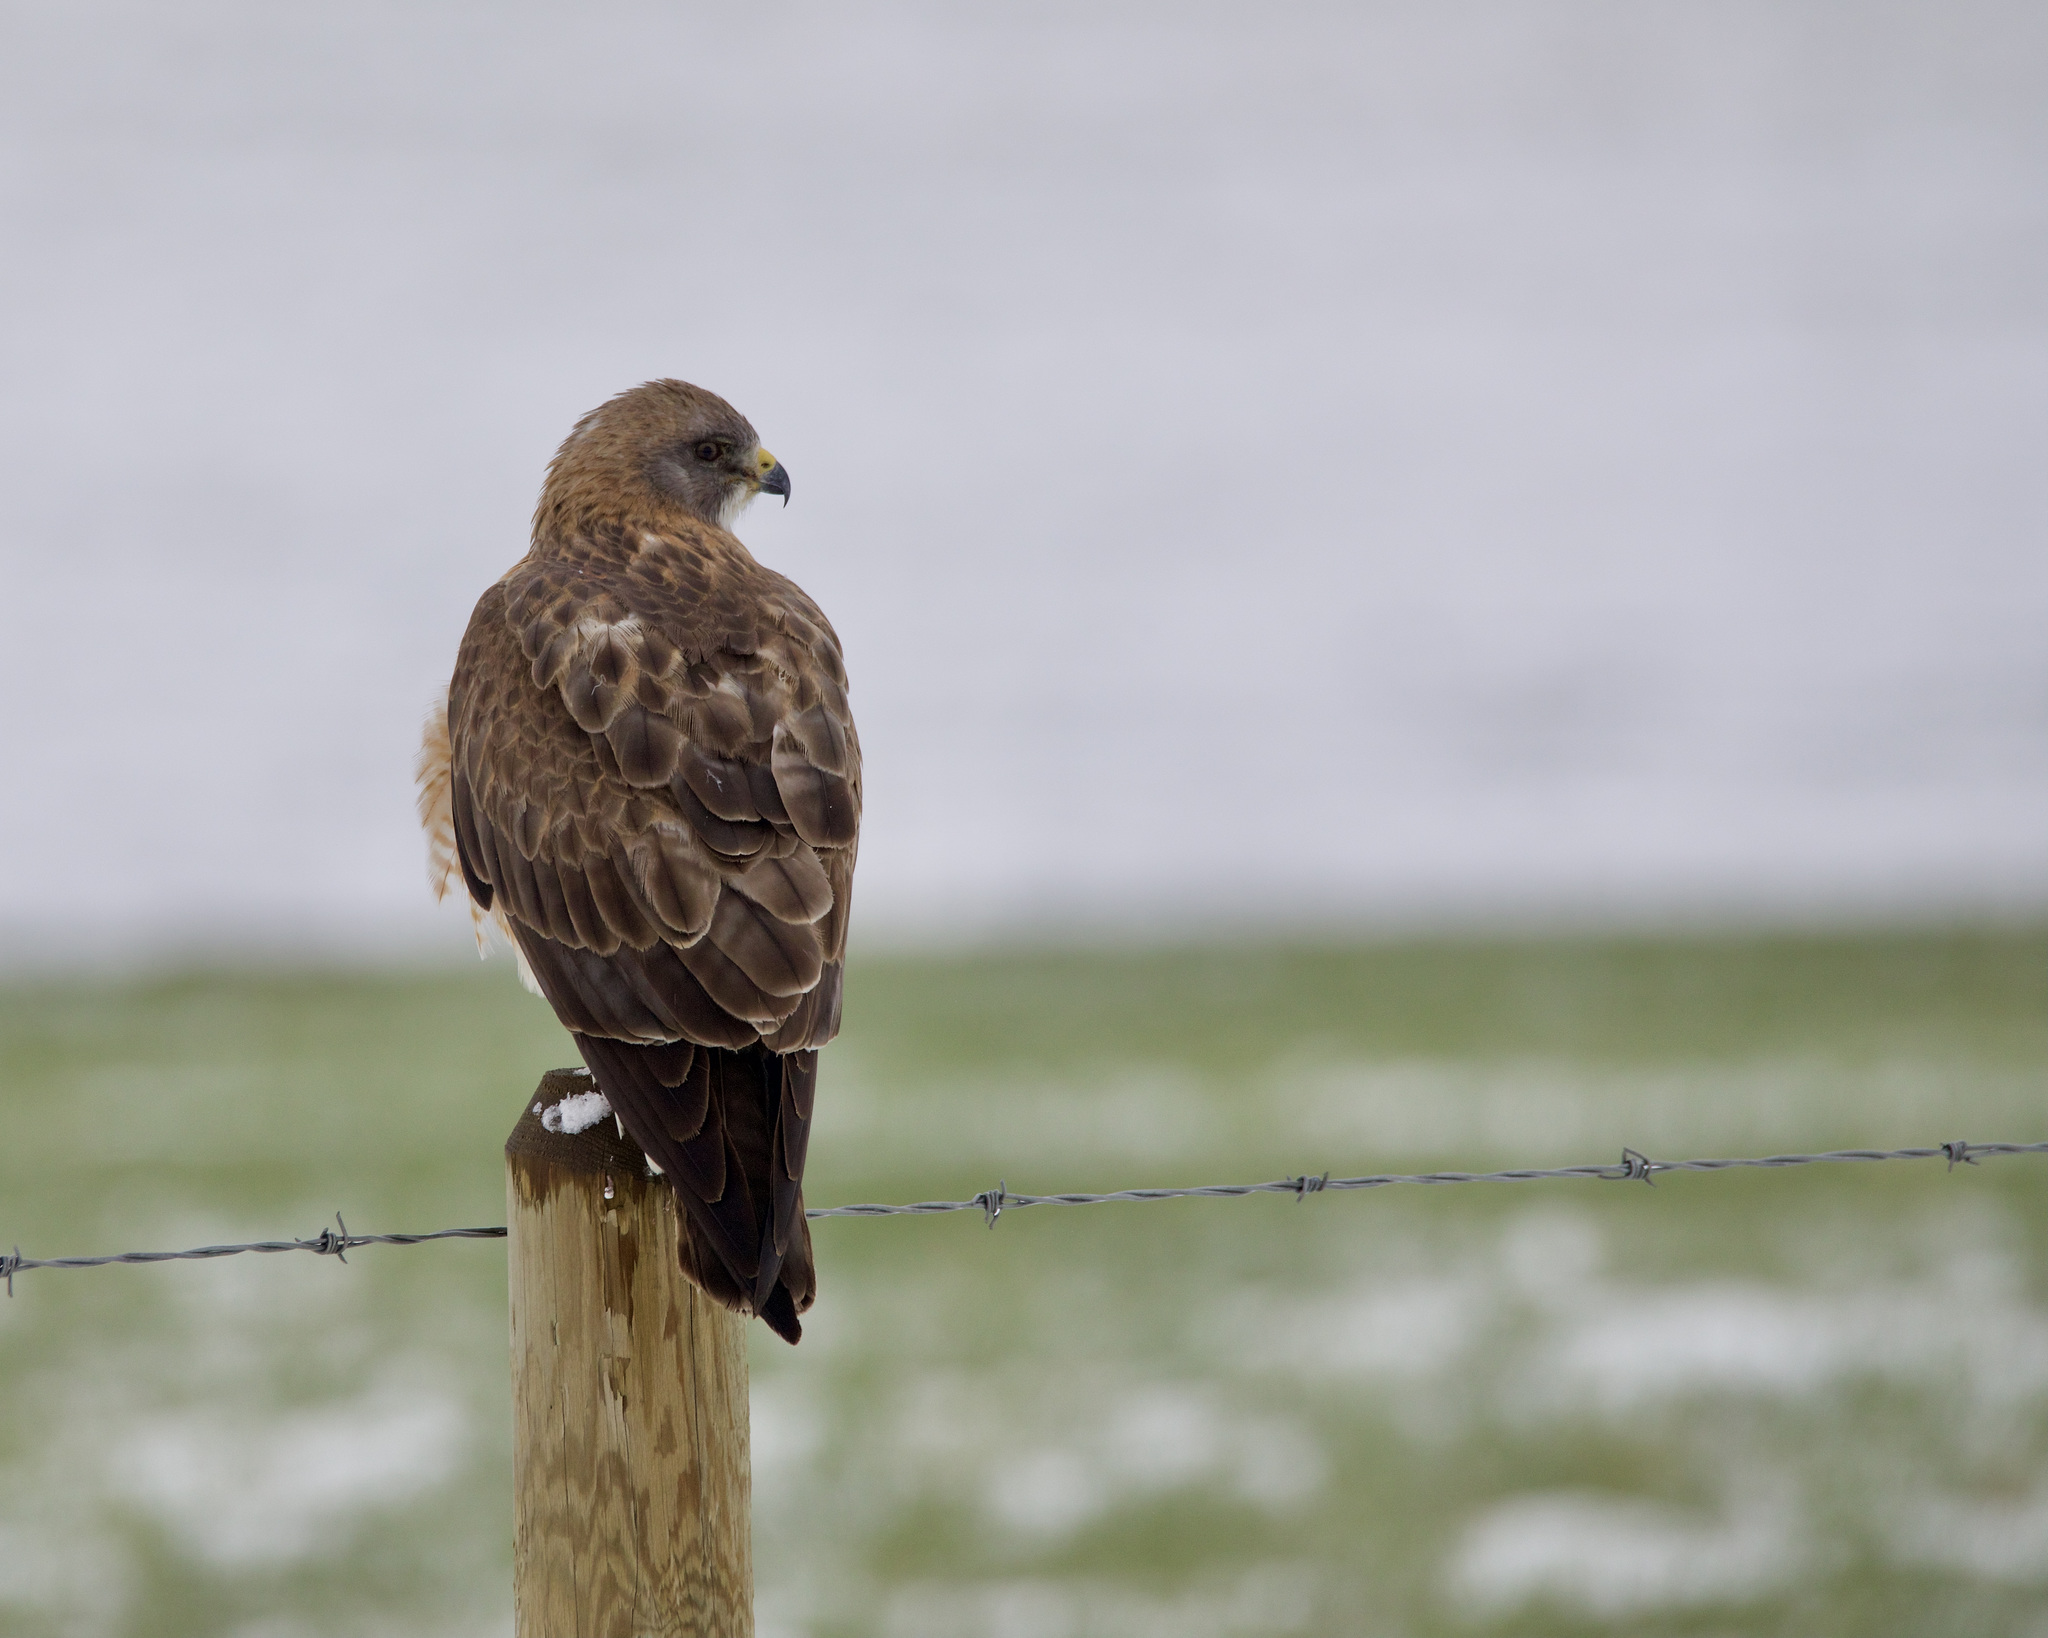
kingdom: Animalia
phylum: Chordata
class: Aves
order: Accipitriformes
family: Accipitridae
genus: Buteo
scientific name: Buteo swainsoni
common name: Swainson's hawk
